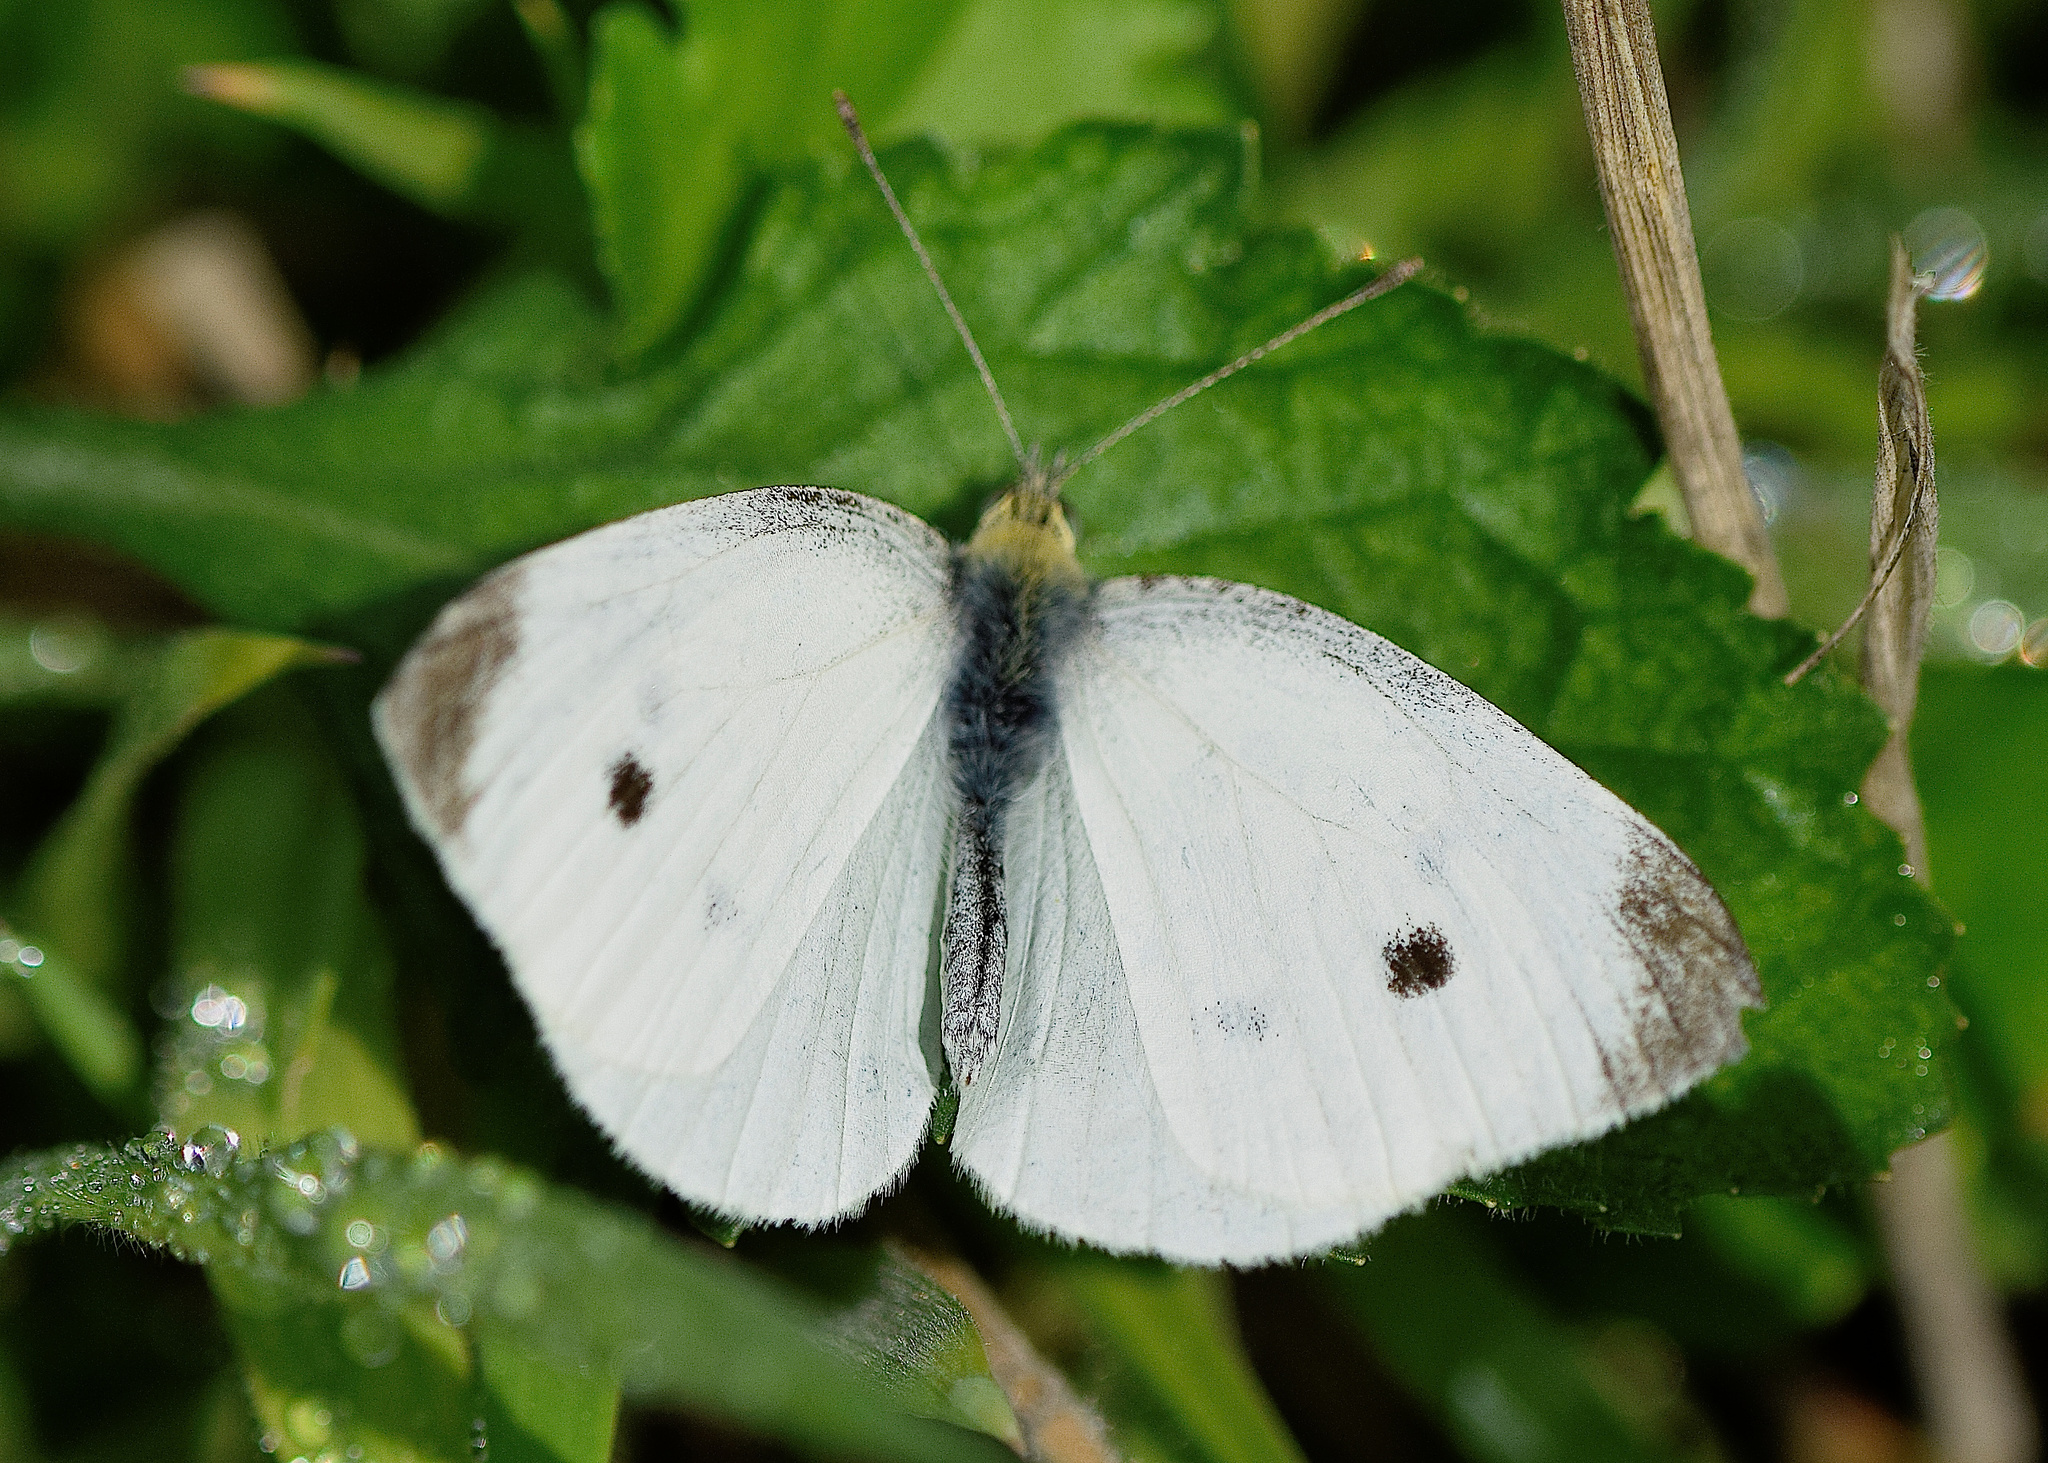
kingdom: Animalia
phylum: Arthropoda
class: Insecta
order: Lepidoptera
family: Pieridae
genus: Pieris
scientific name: Pieris rapae
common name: Small white
